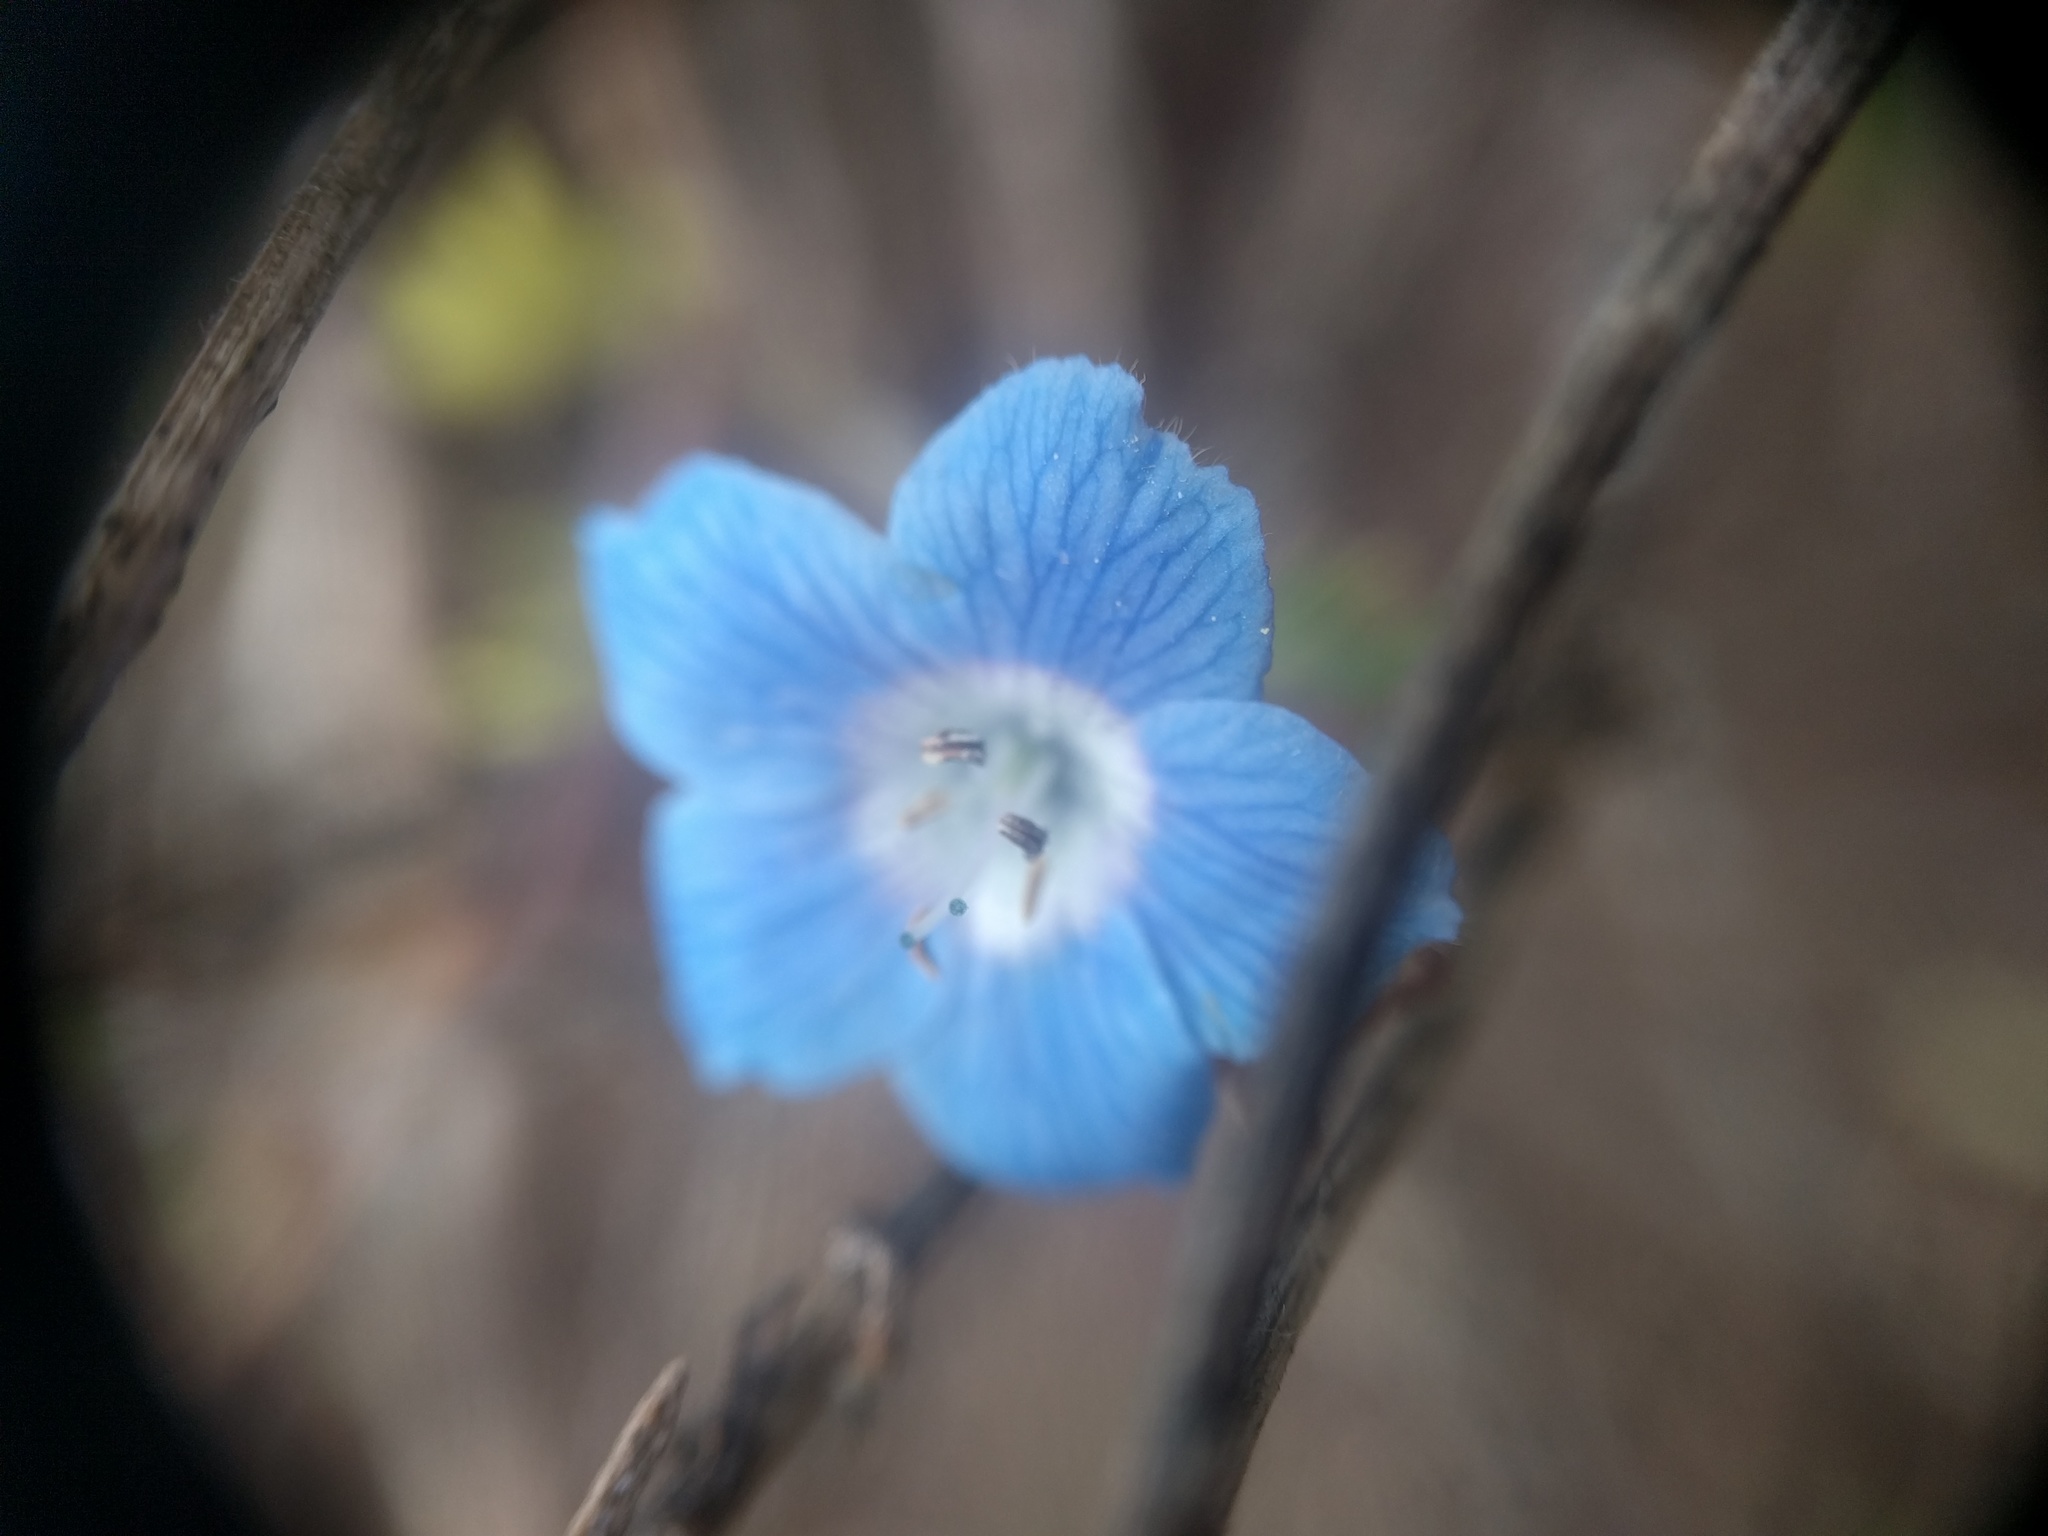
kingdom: Plantae
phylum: Tracheophyta
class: Magnoliopsida
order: Boraginales
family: Hydrophyllaceae
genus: Nemophila
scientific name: Nemophila menziesii
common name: Baby's-blue-eyes
